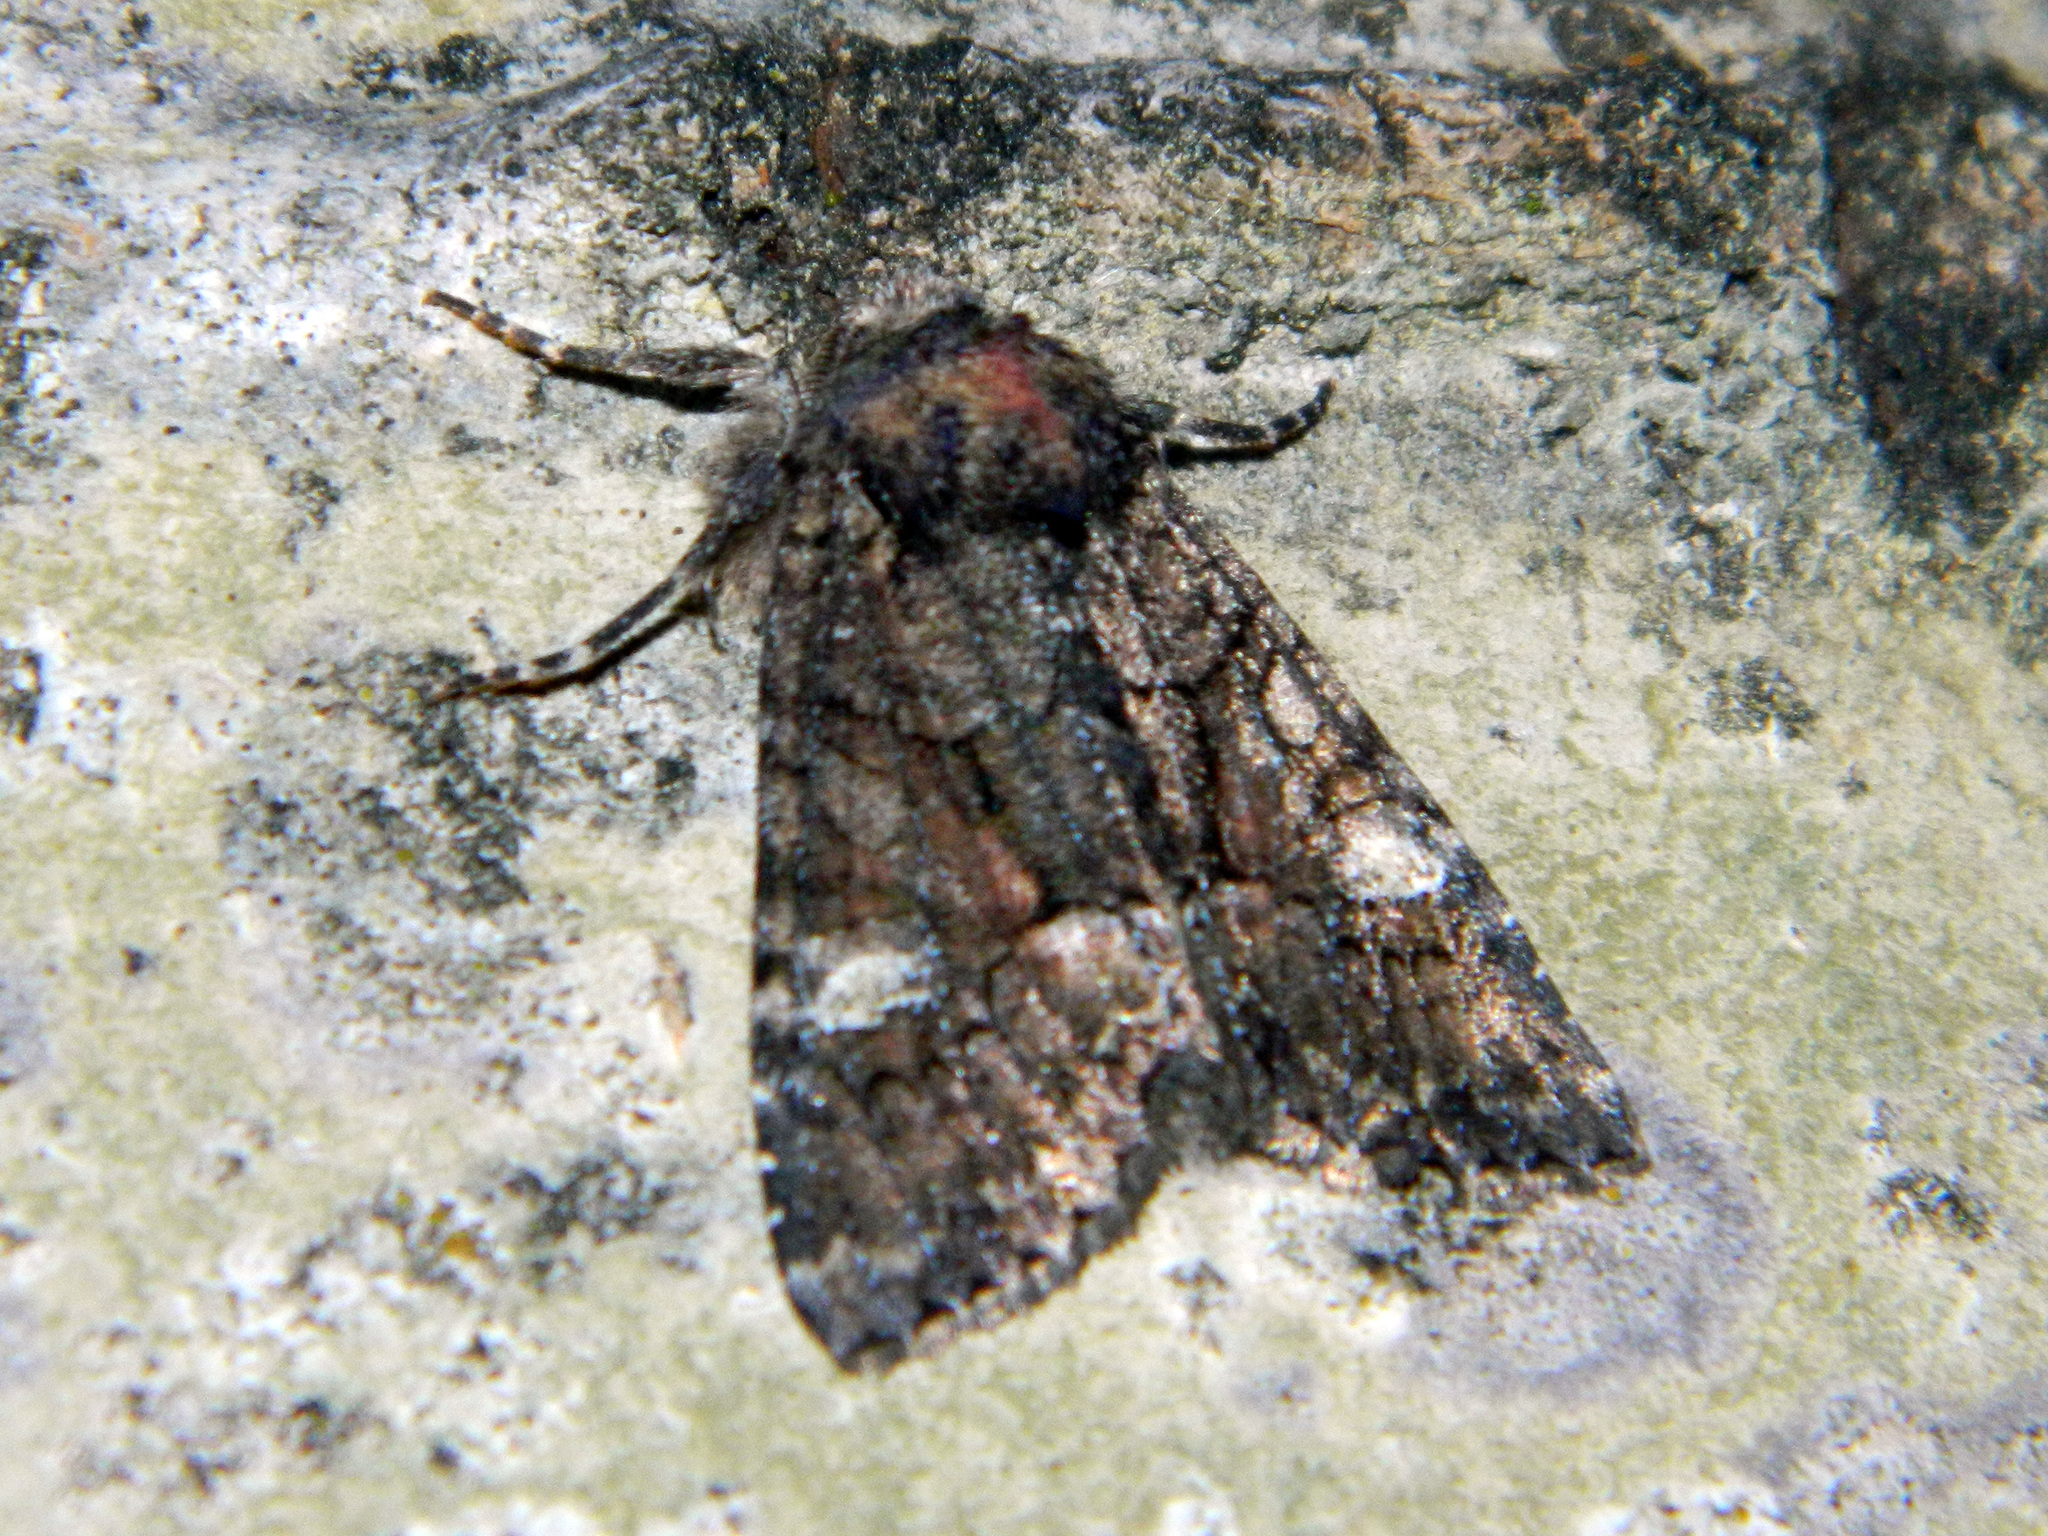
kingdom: Animalia
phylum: Arthropoda
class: Insecta
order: Lepidoptera
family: Noctuidae
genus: Fishia
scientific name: Fishia illocata
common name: Wandering brocade moth
